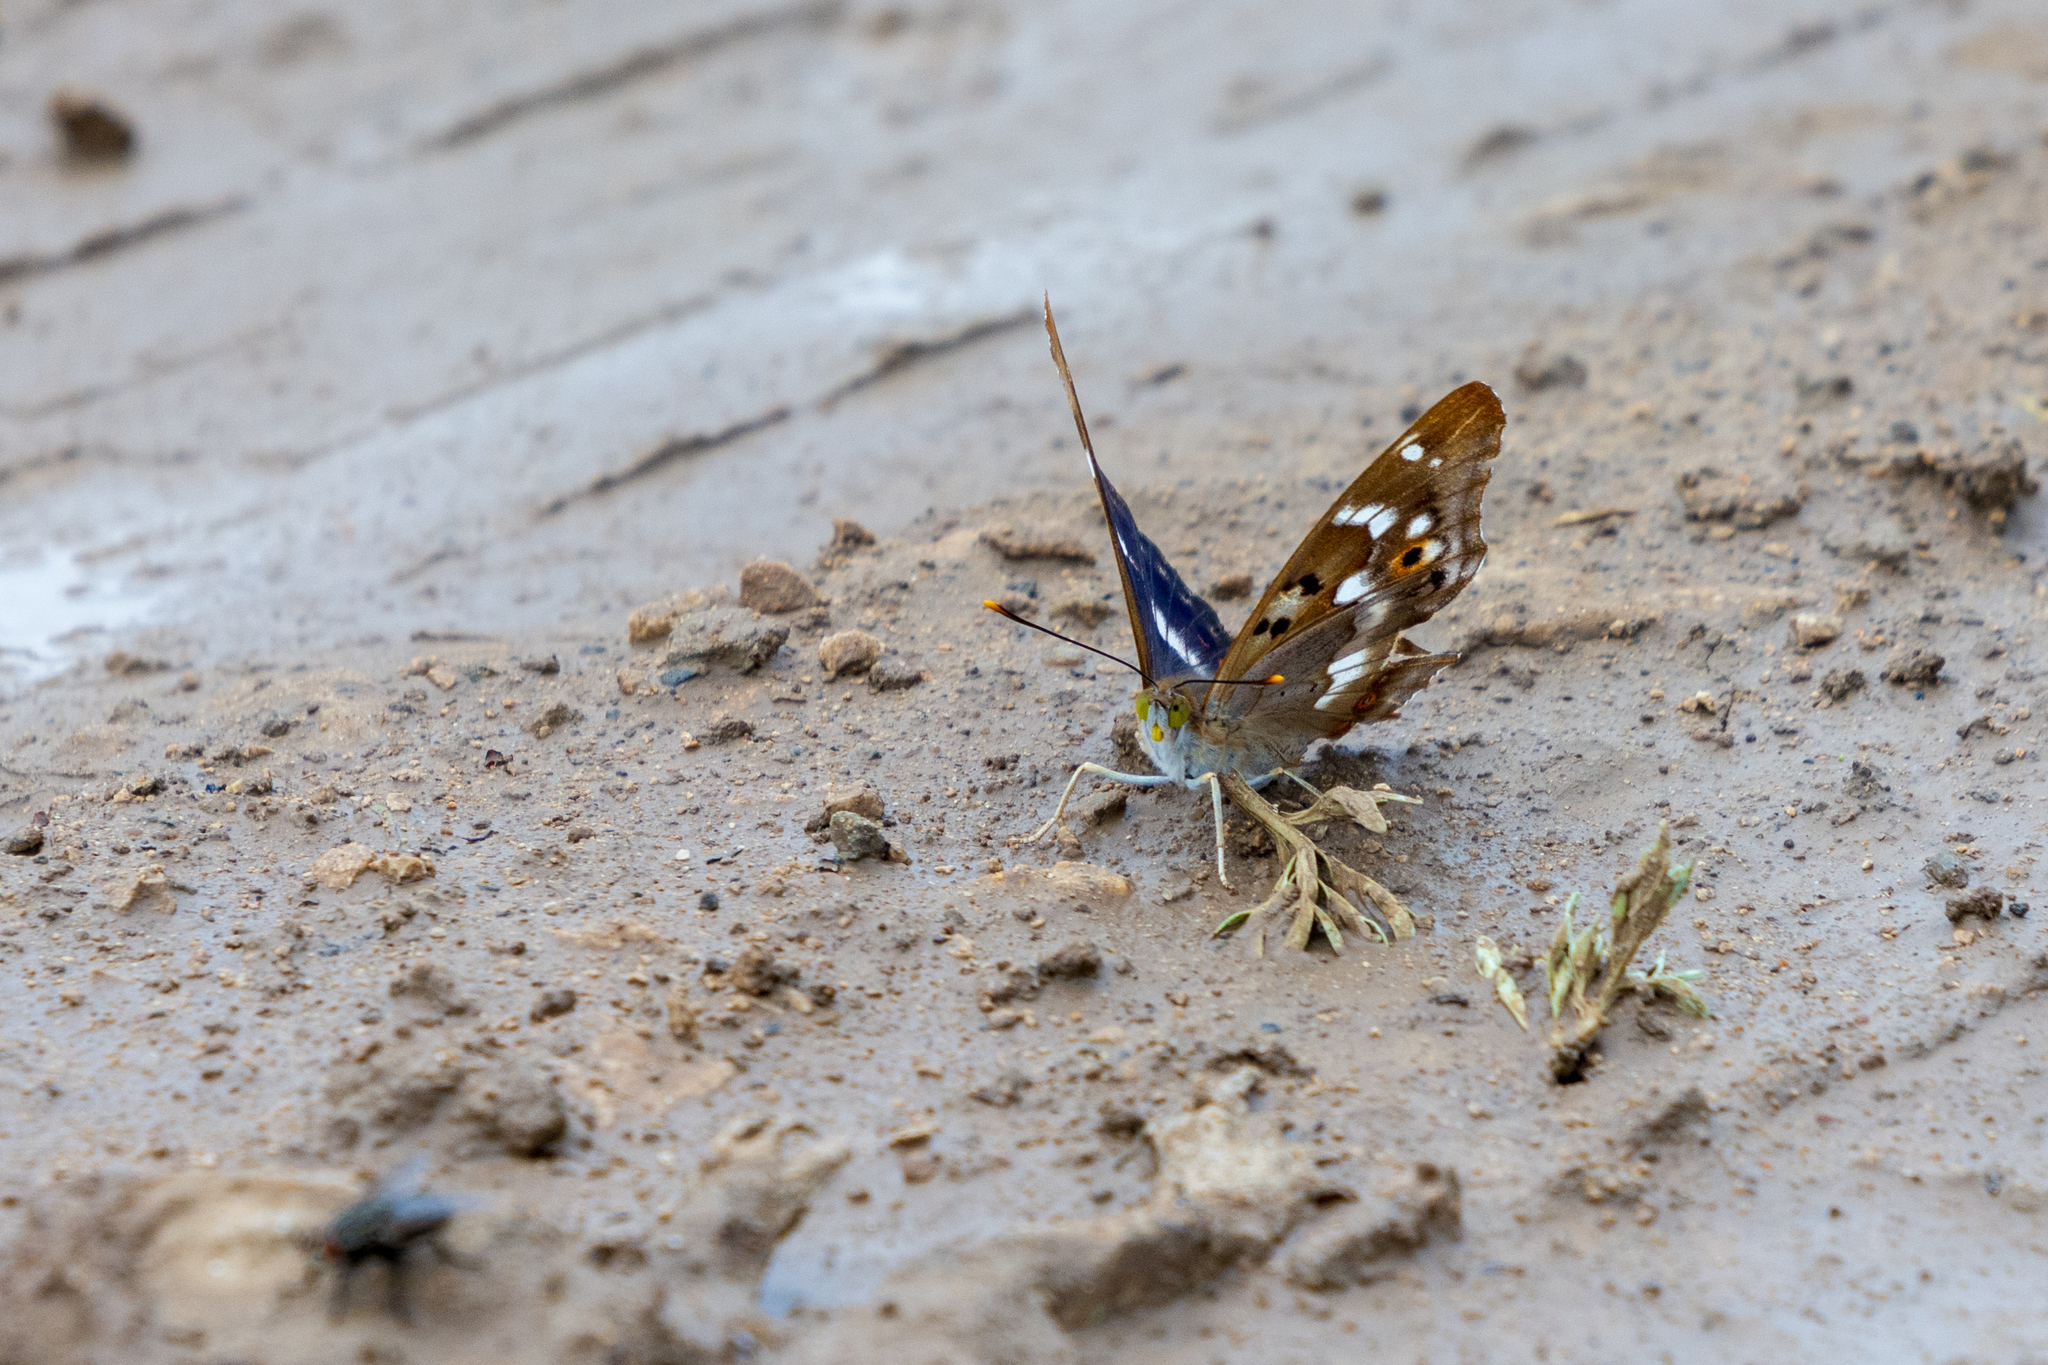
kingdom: Animalia
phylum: Arthropoda
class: Insecta
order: Lepidoptera
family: Nymphalidae
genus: Apatura
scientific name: Apatura ilia
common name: Lesser purple emperor
